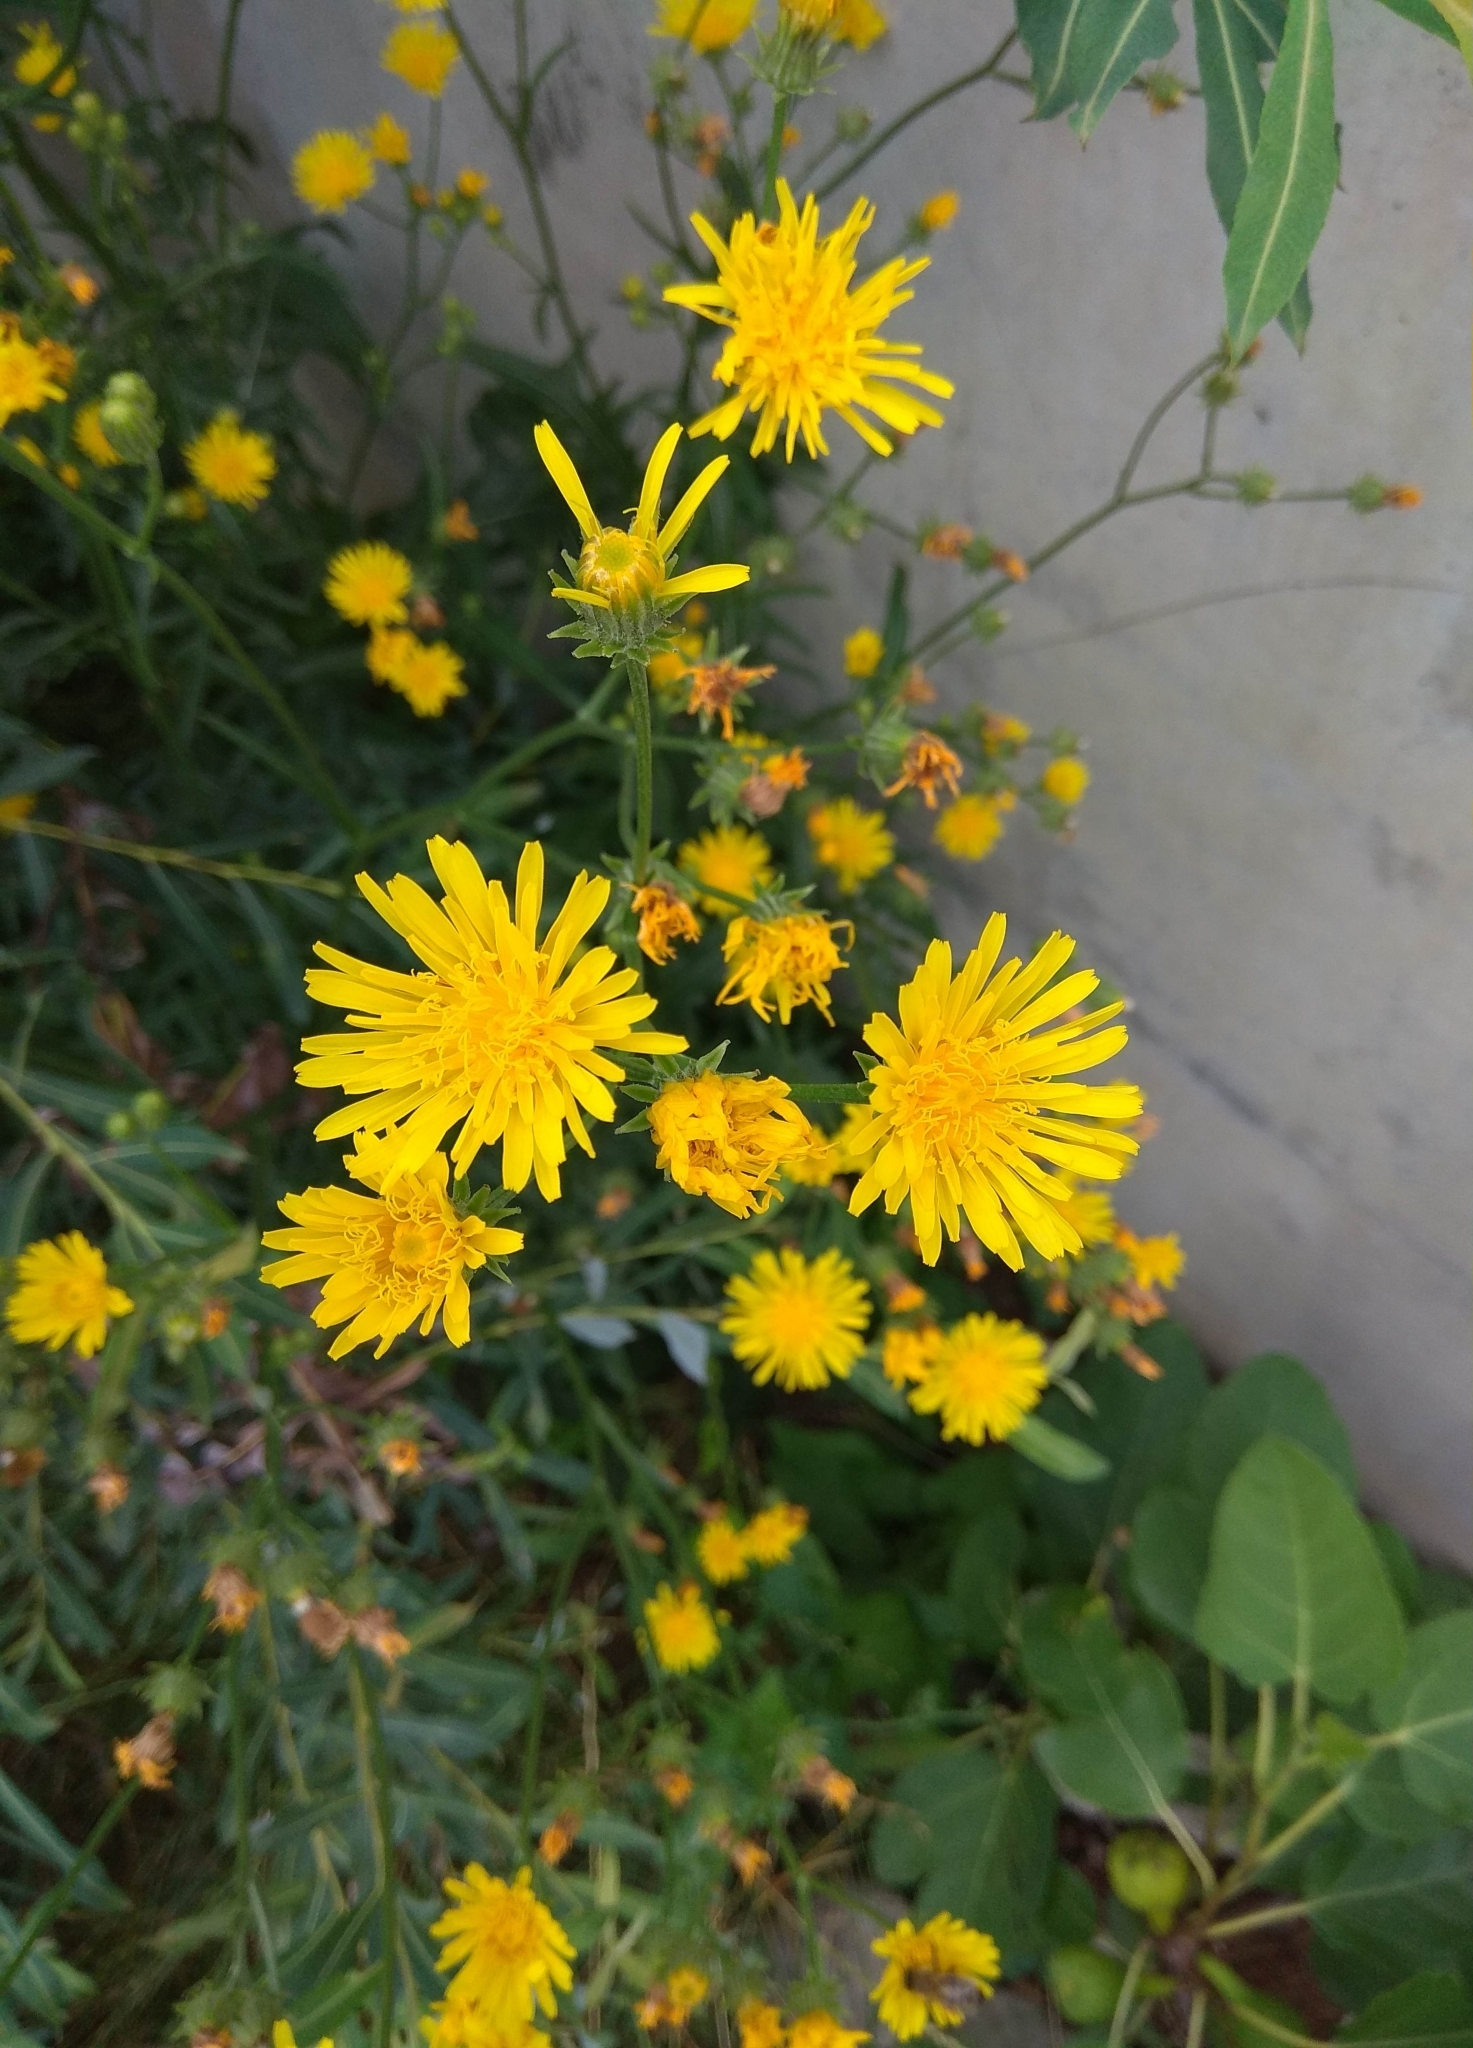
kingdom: Plantae
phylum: Tracheophyta
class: Magnoliopsida
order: Asterales
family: Asteraceae
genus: Crepis
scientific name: Crepis biennis
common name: Rough hawk's-beard
